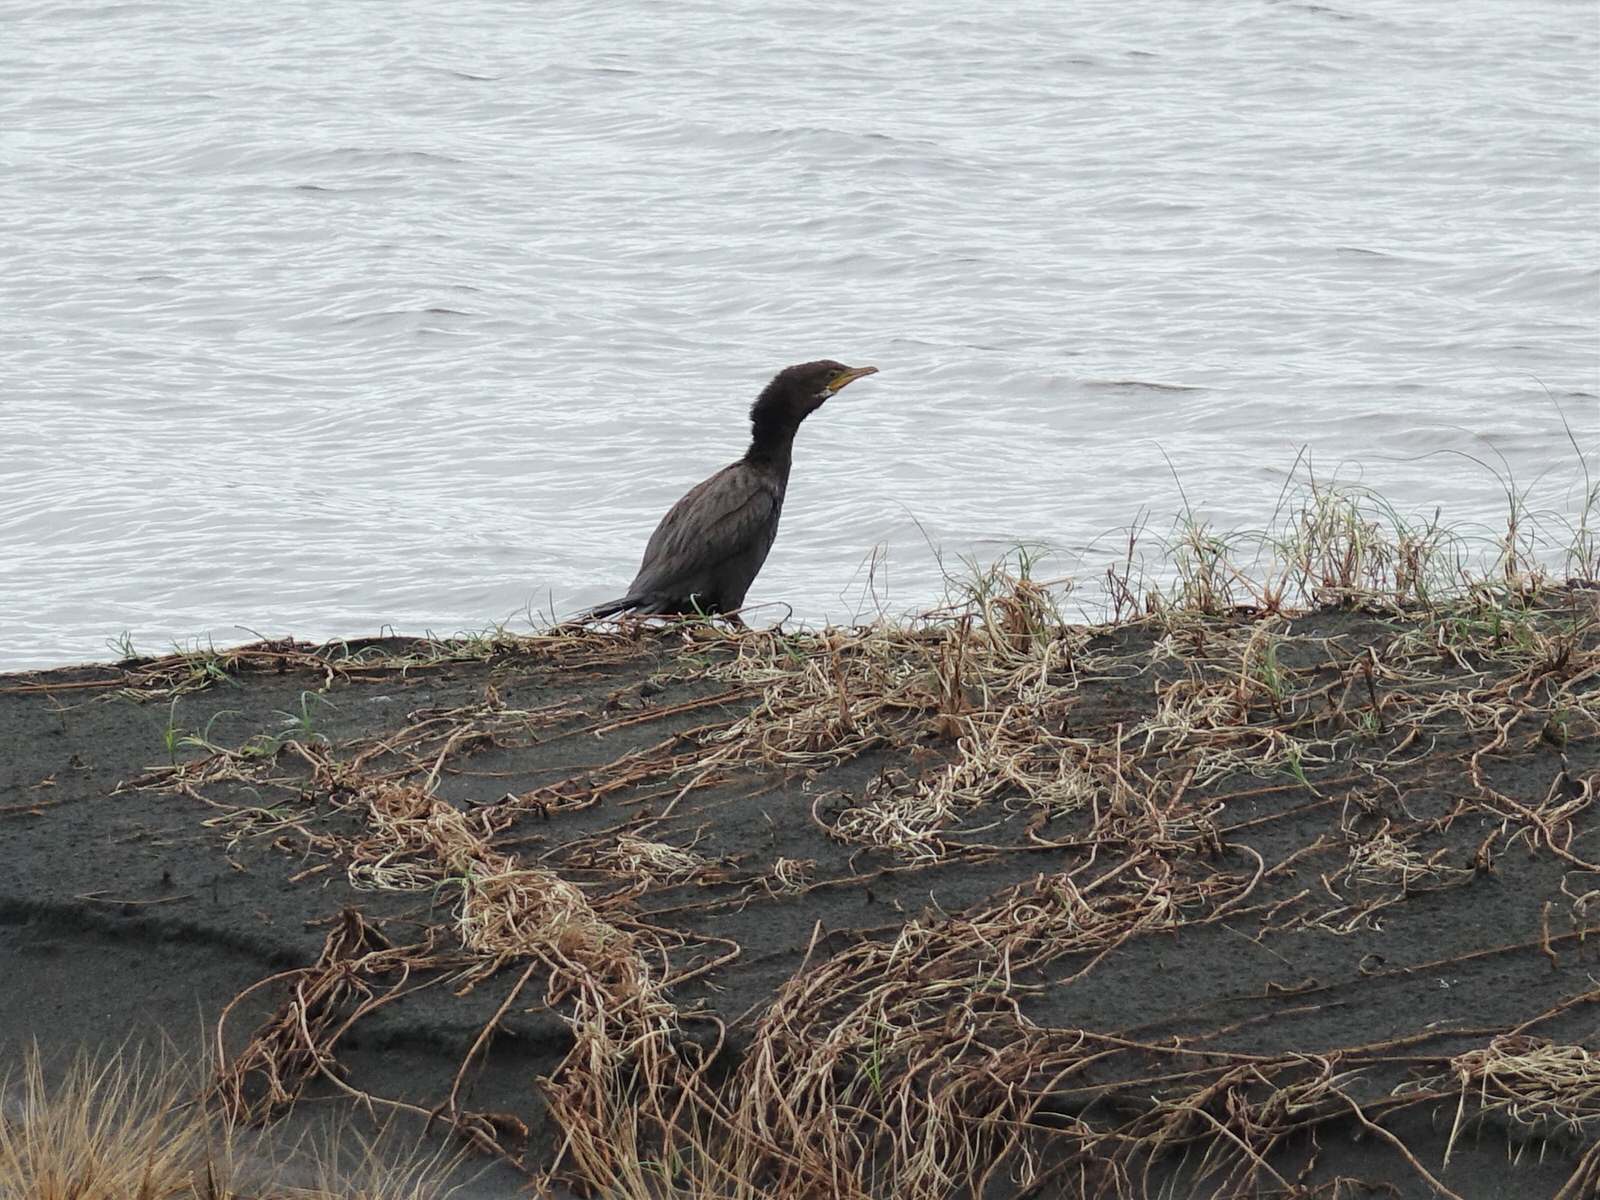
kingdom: Animalia
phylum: Chordata
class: Aves
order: Suliformes
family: Phalacrocoracidae
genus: Microcarbo
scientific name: Microcarbo melanoleucos
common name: Little pied cormorant
